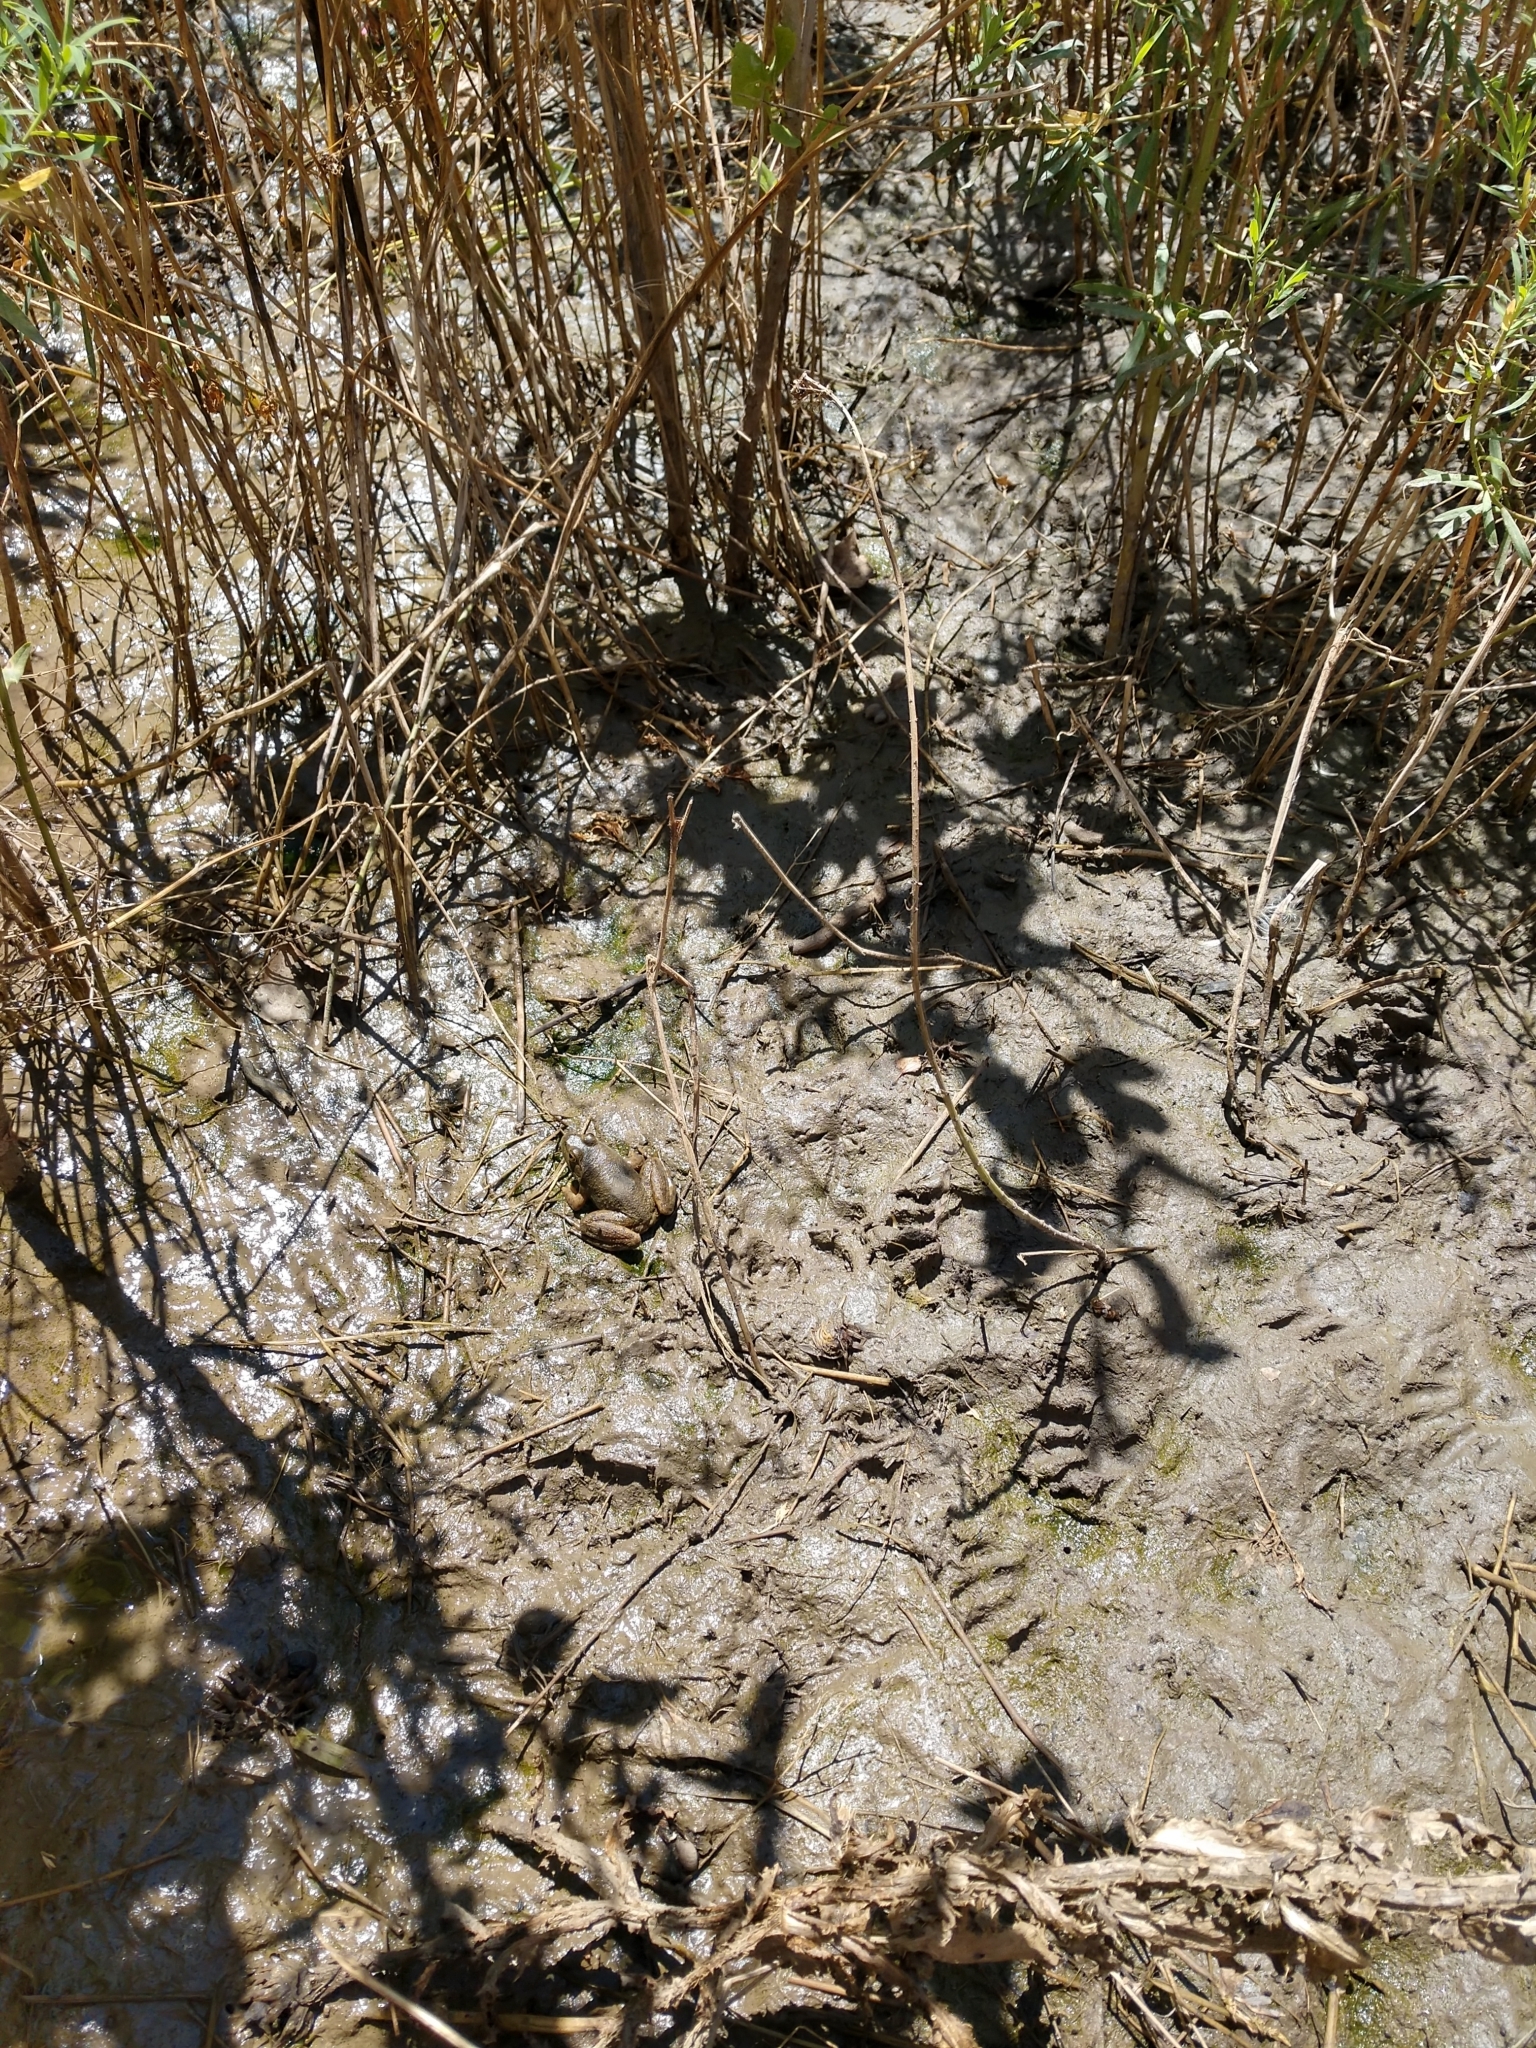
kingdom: Animalia
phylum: Chordata
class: Amphibia
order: Anura
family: Ranidae
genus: Lithobates
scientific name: Lithobates catesbeianus
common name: American bullfrog
